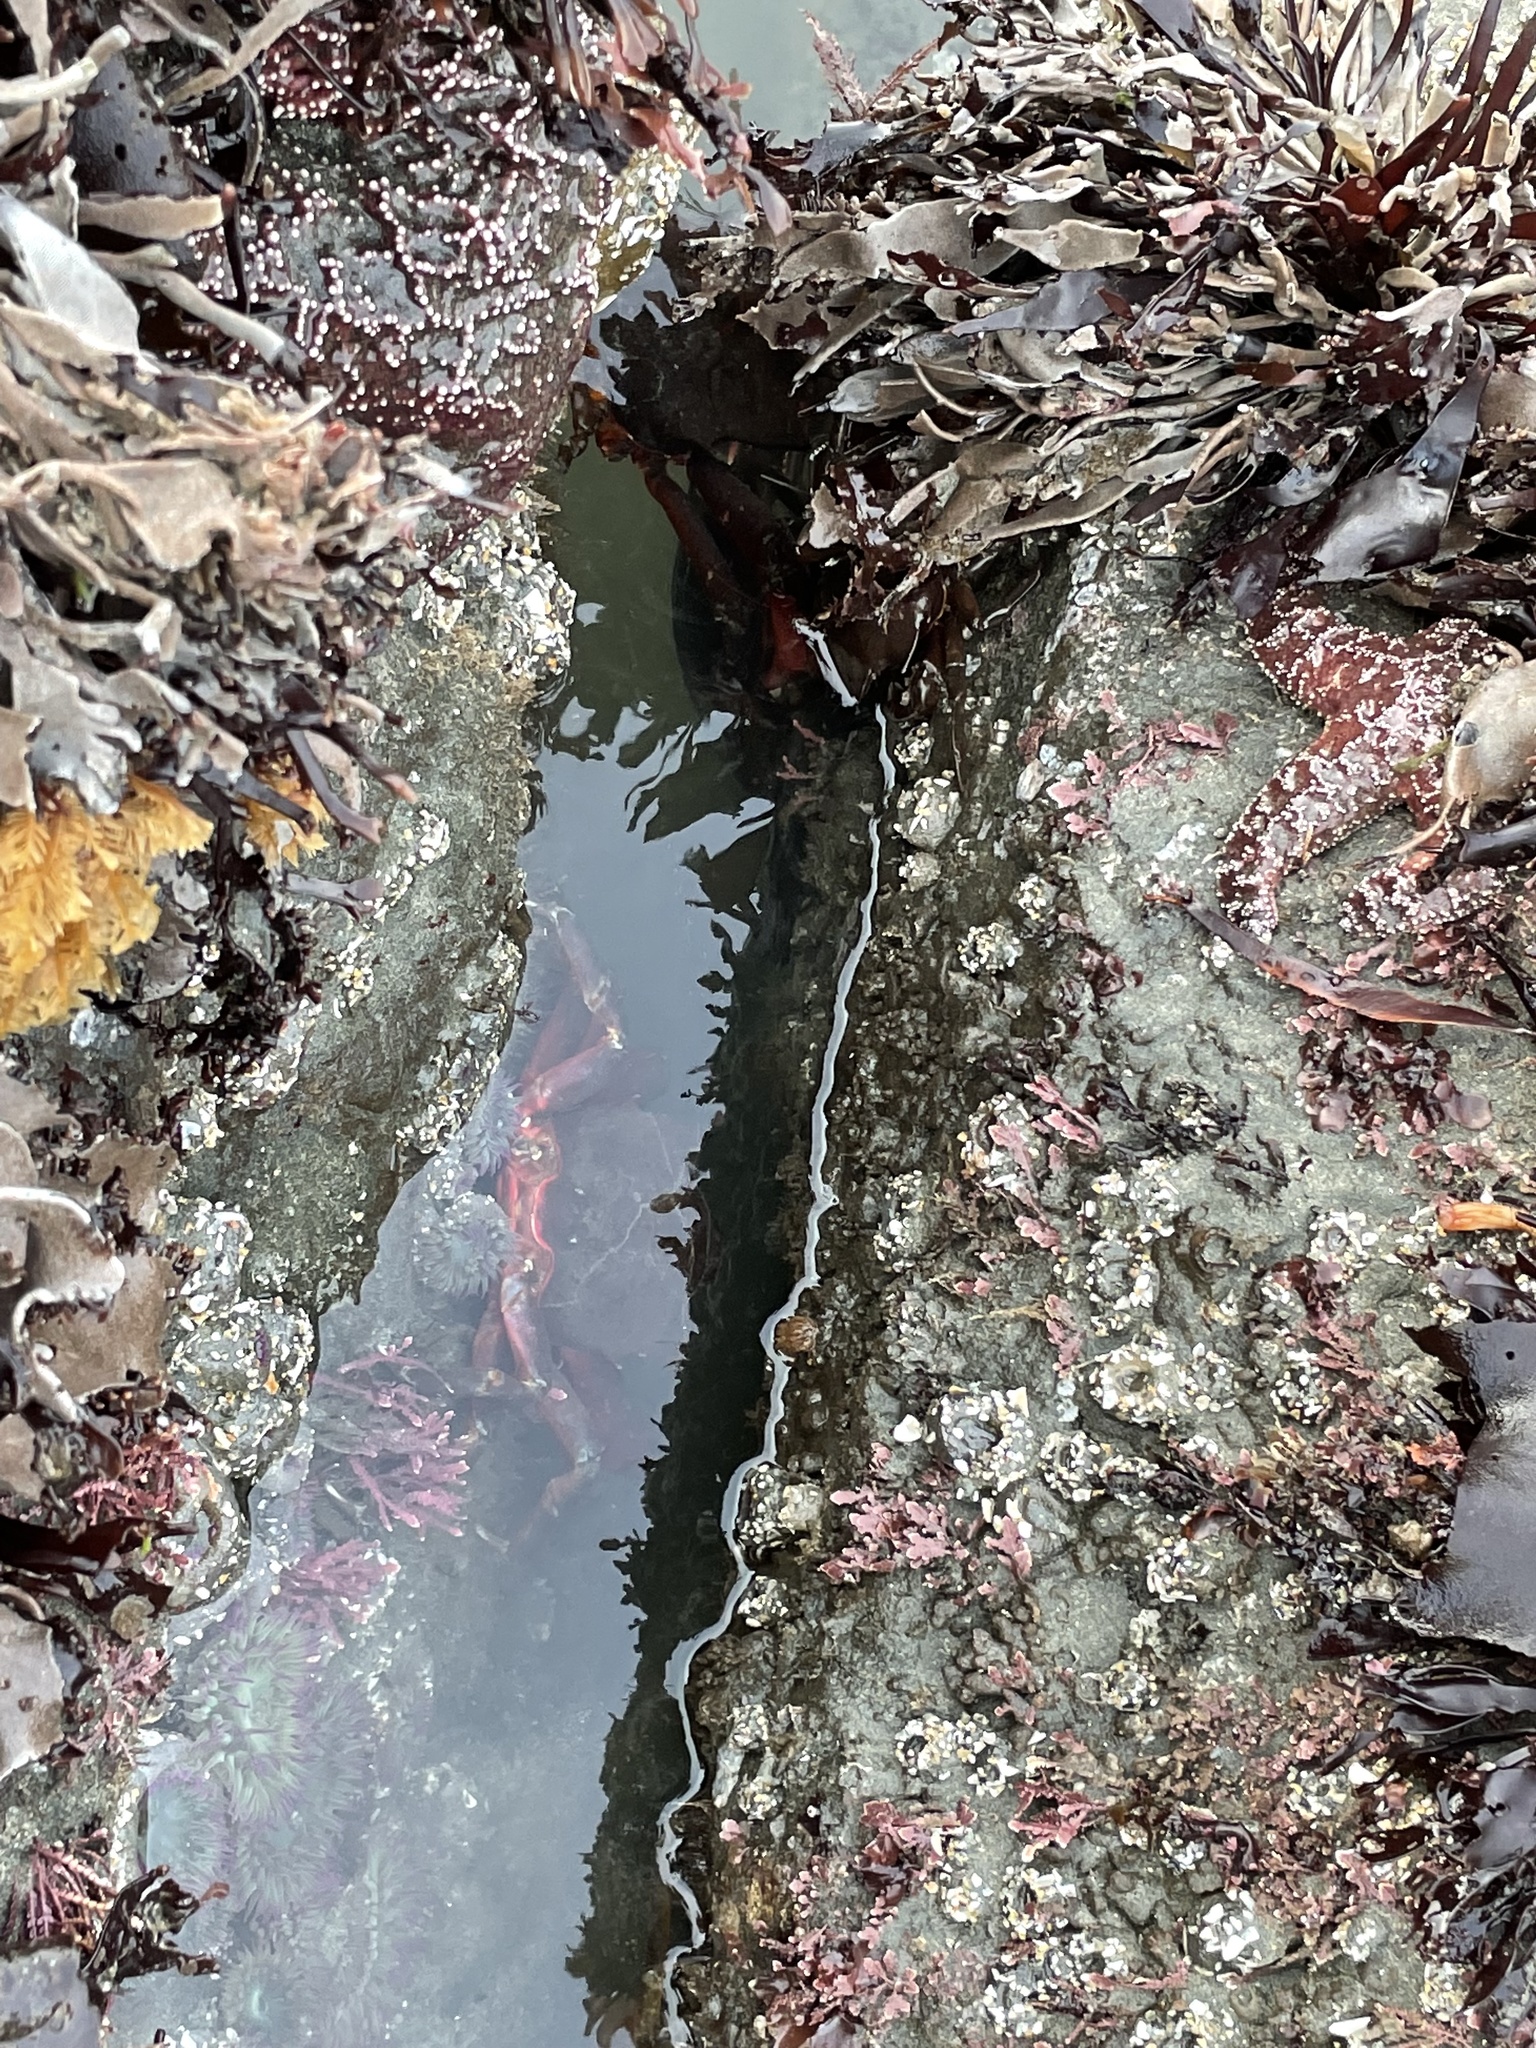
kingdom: Animalia
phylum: Arthropoda
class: Malacostraca
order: Decapoda
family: Epialtidae
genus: Pugettia
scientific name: Pugettia producta
